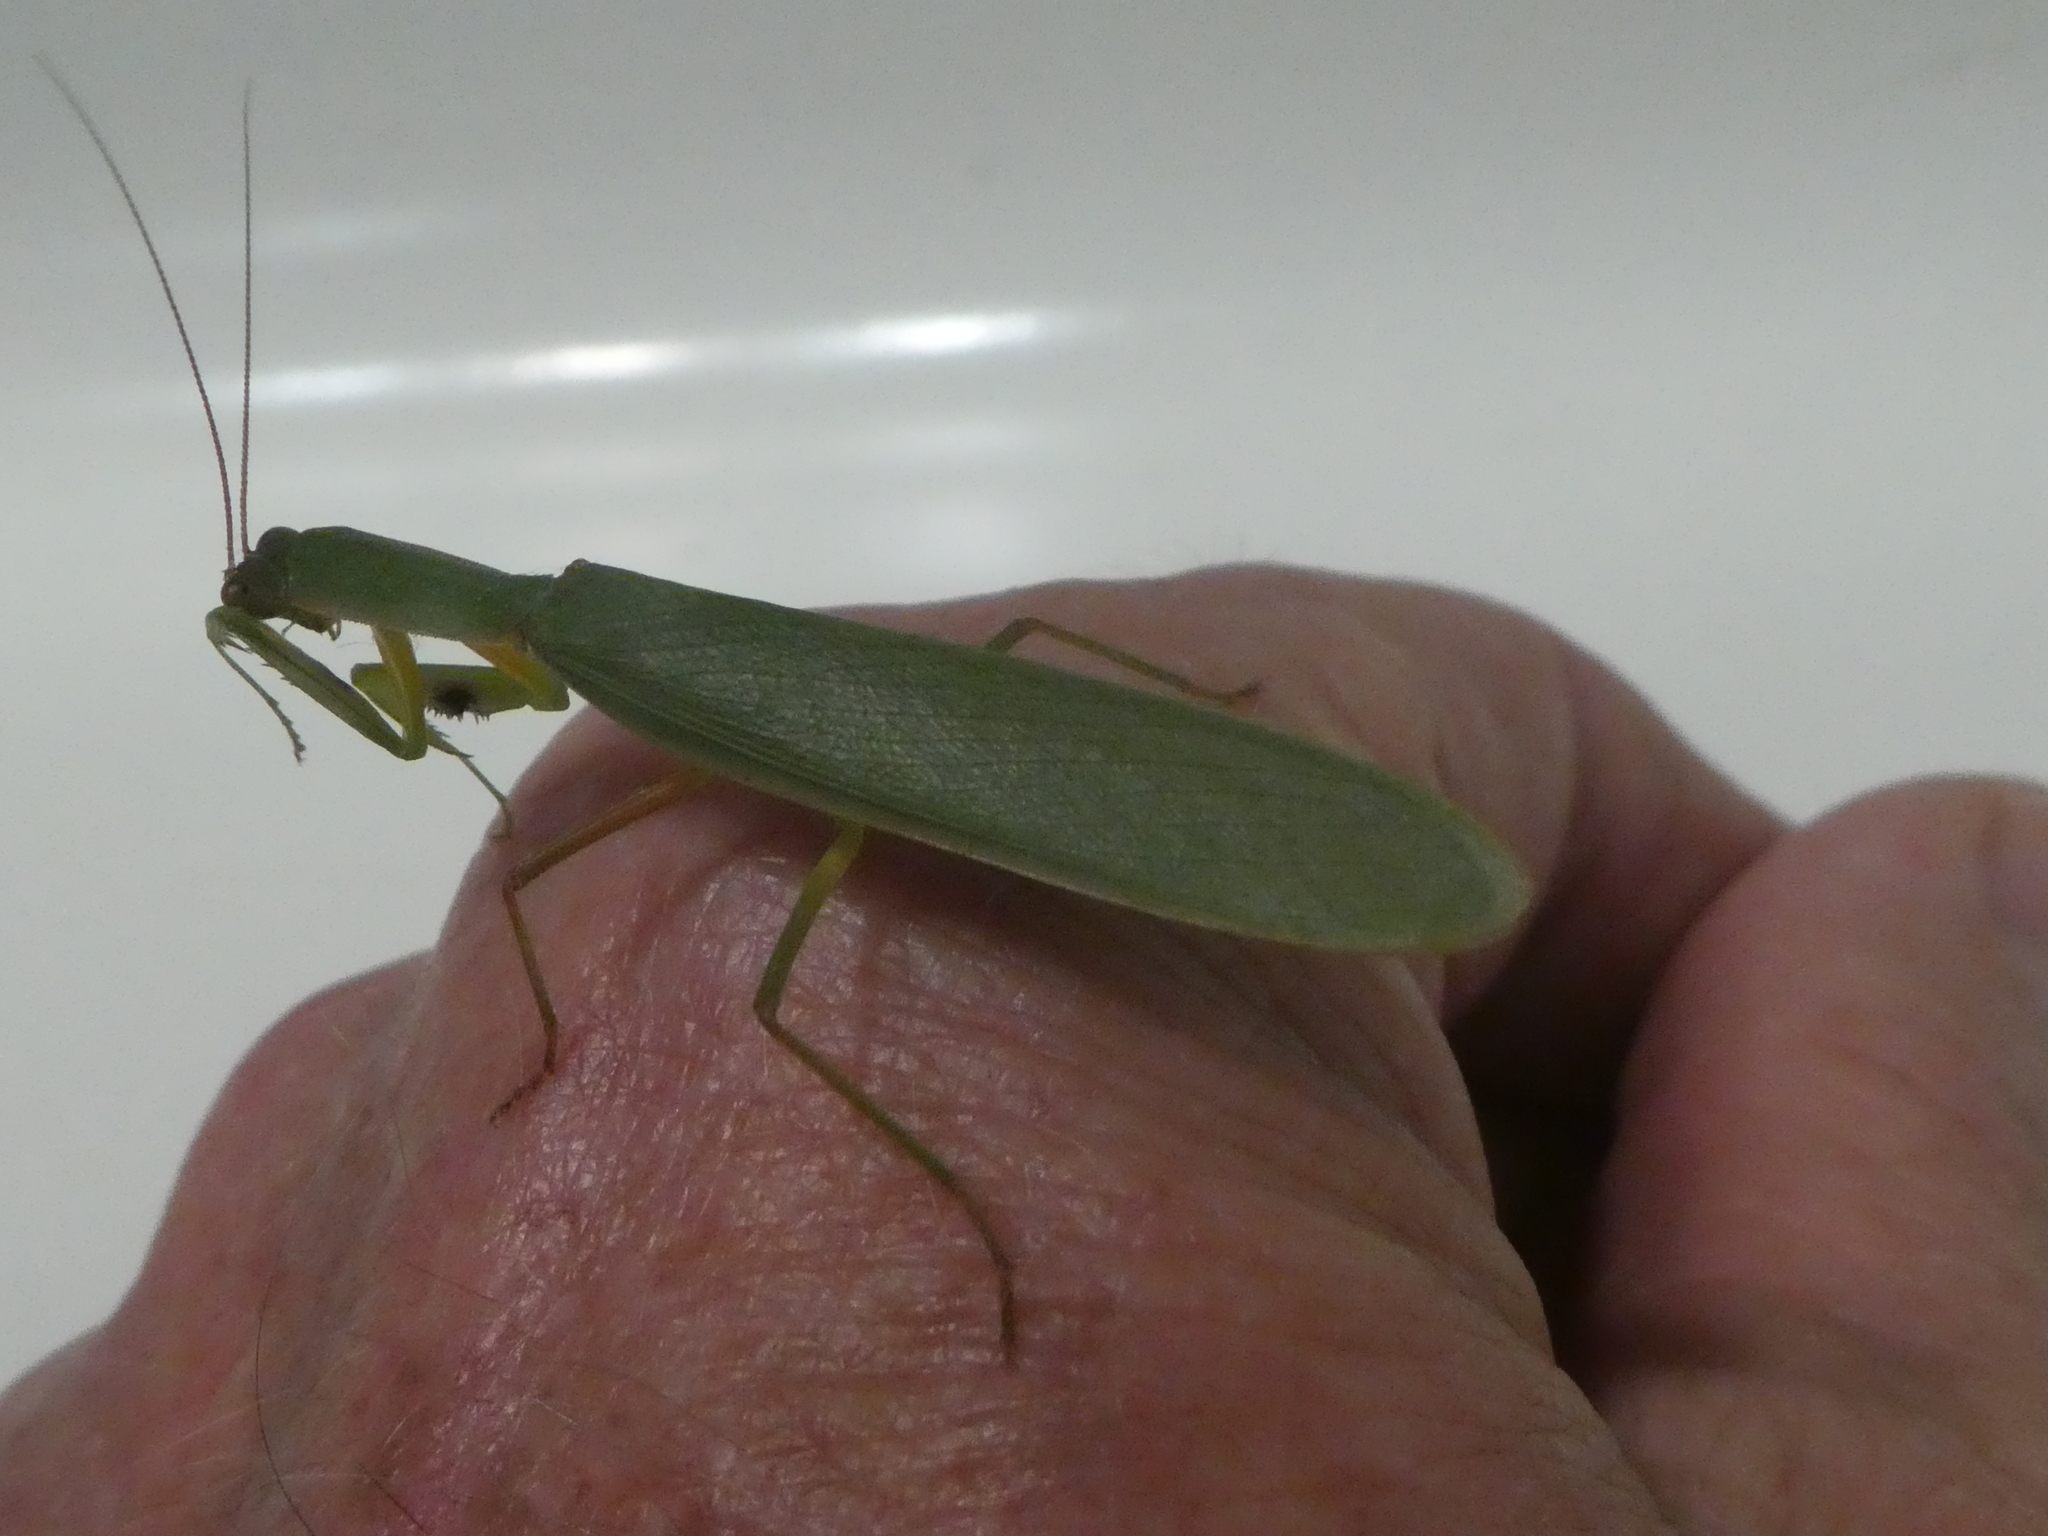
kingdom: Animalia
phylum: Arthropoda
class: Insecta
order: Mantodea
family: Mantidae
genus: Orthodera
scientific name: Orthodera novaezealandiae
